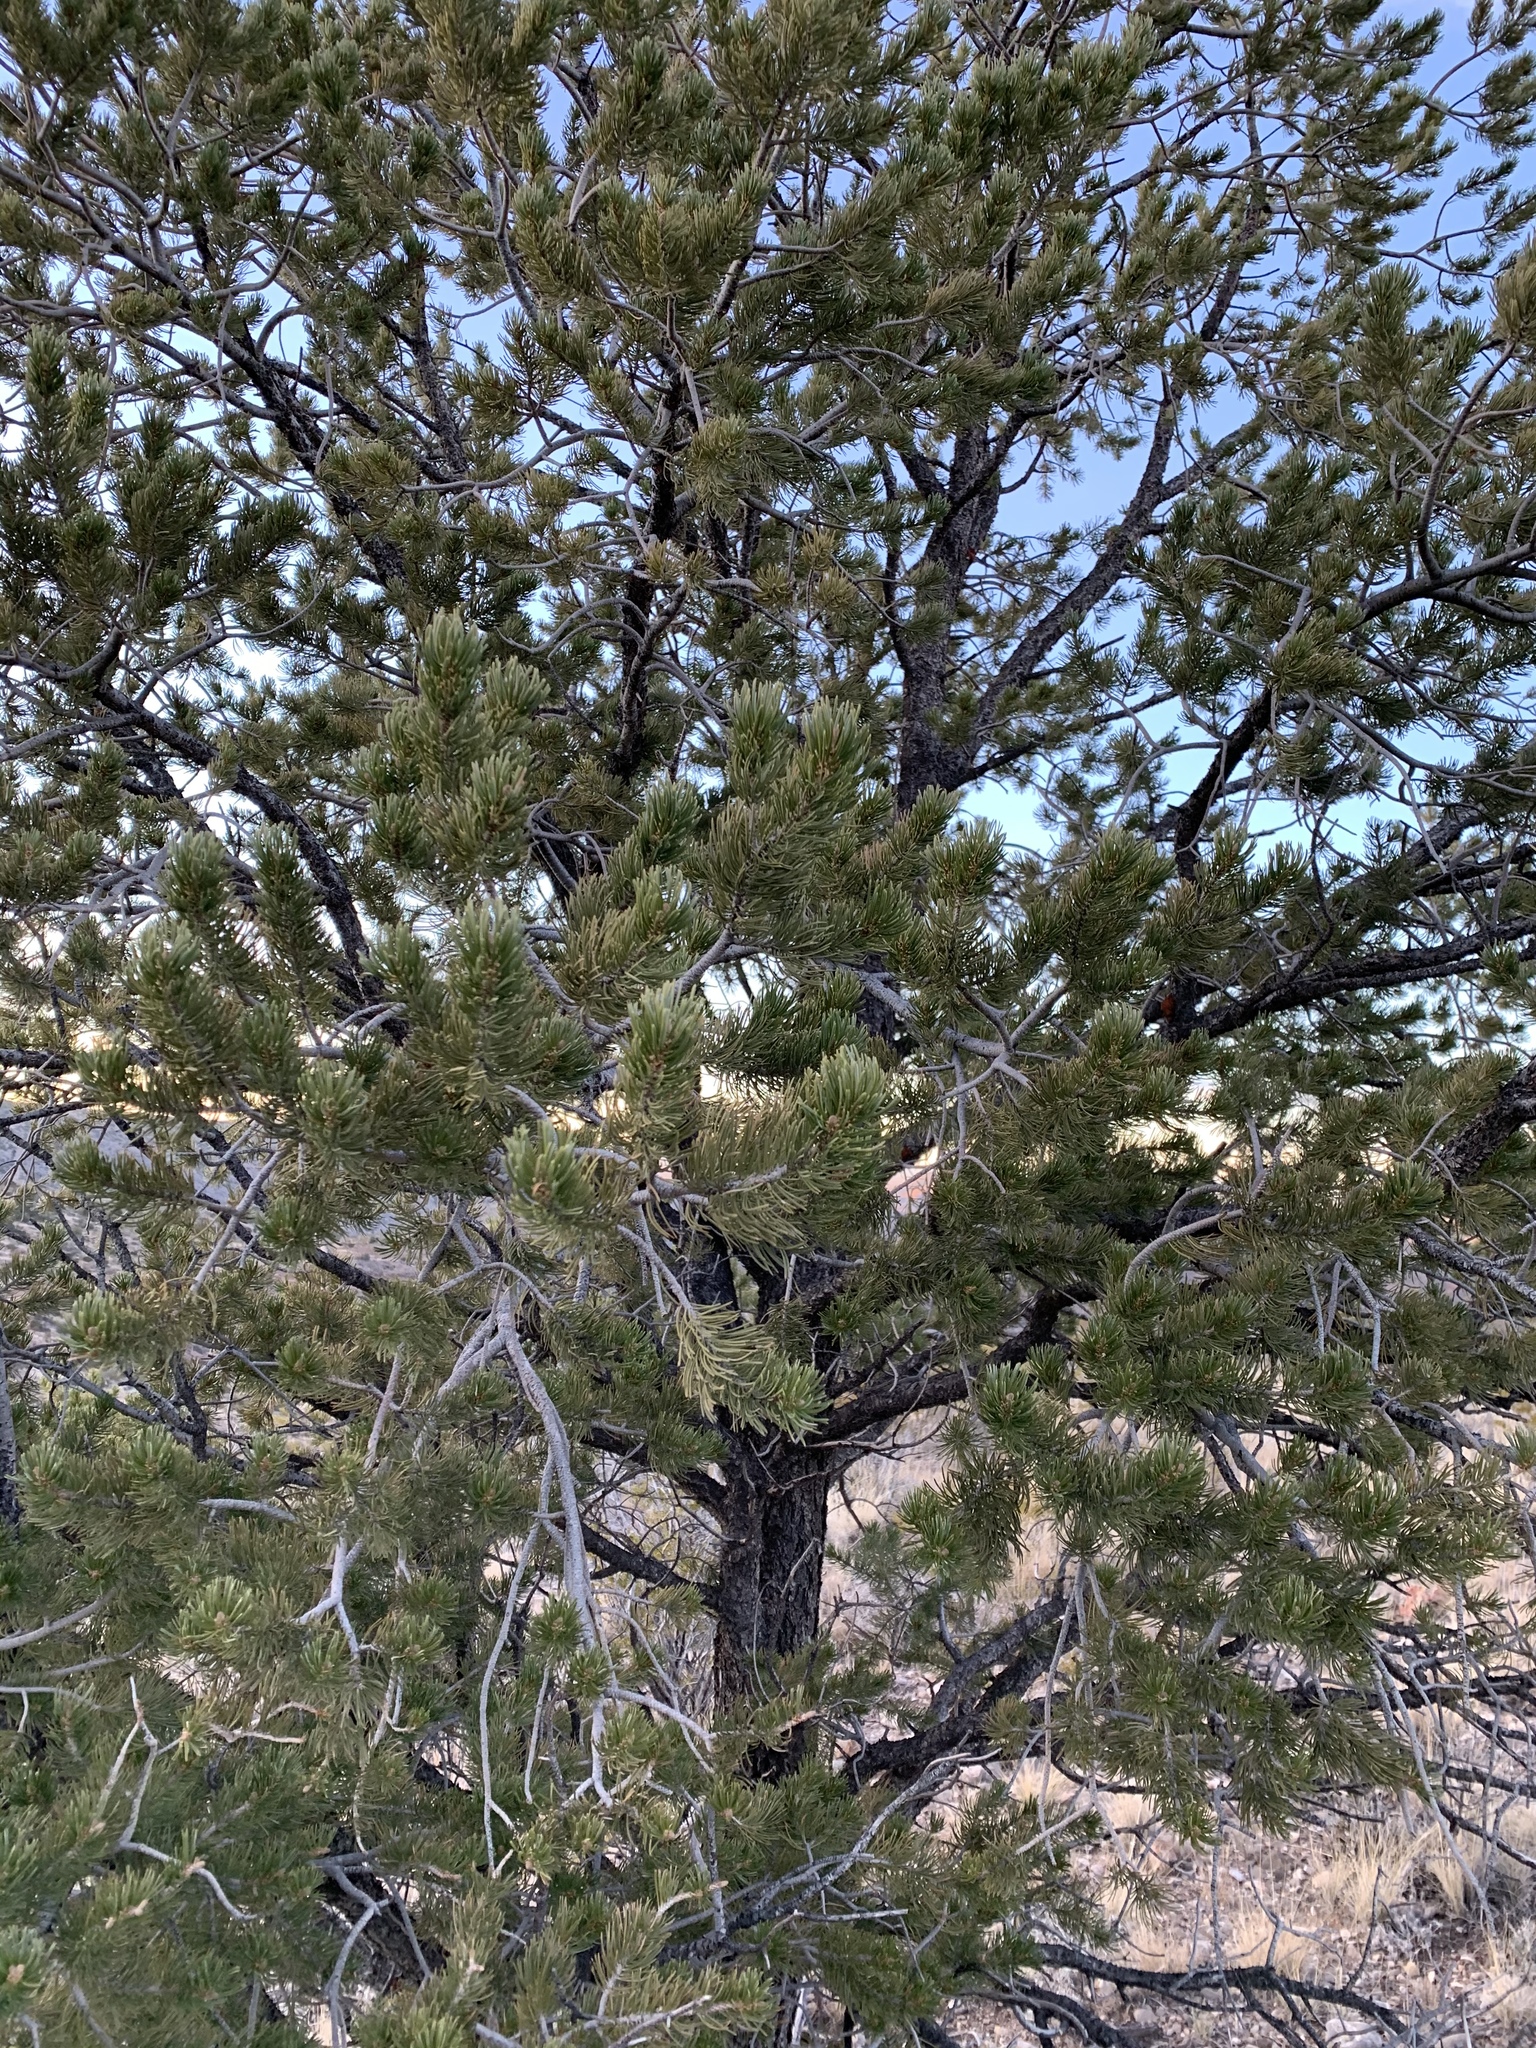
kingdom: Plantae
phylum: Tracheophyta
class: Pinopsida
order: Pinales
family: Pinaceae
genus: Pinus
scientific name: Pinus edulis
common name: Colorado pinyon
